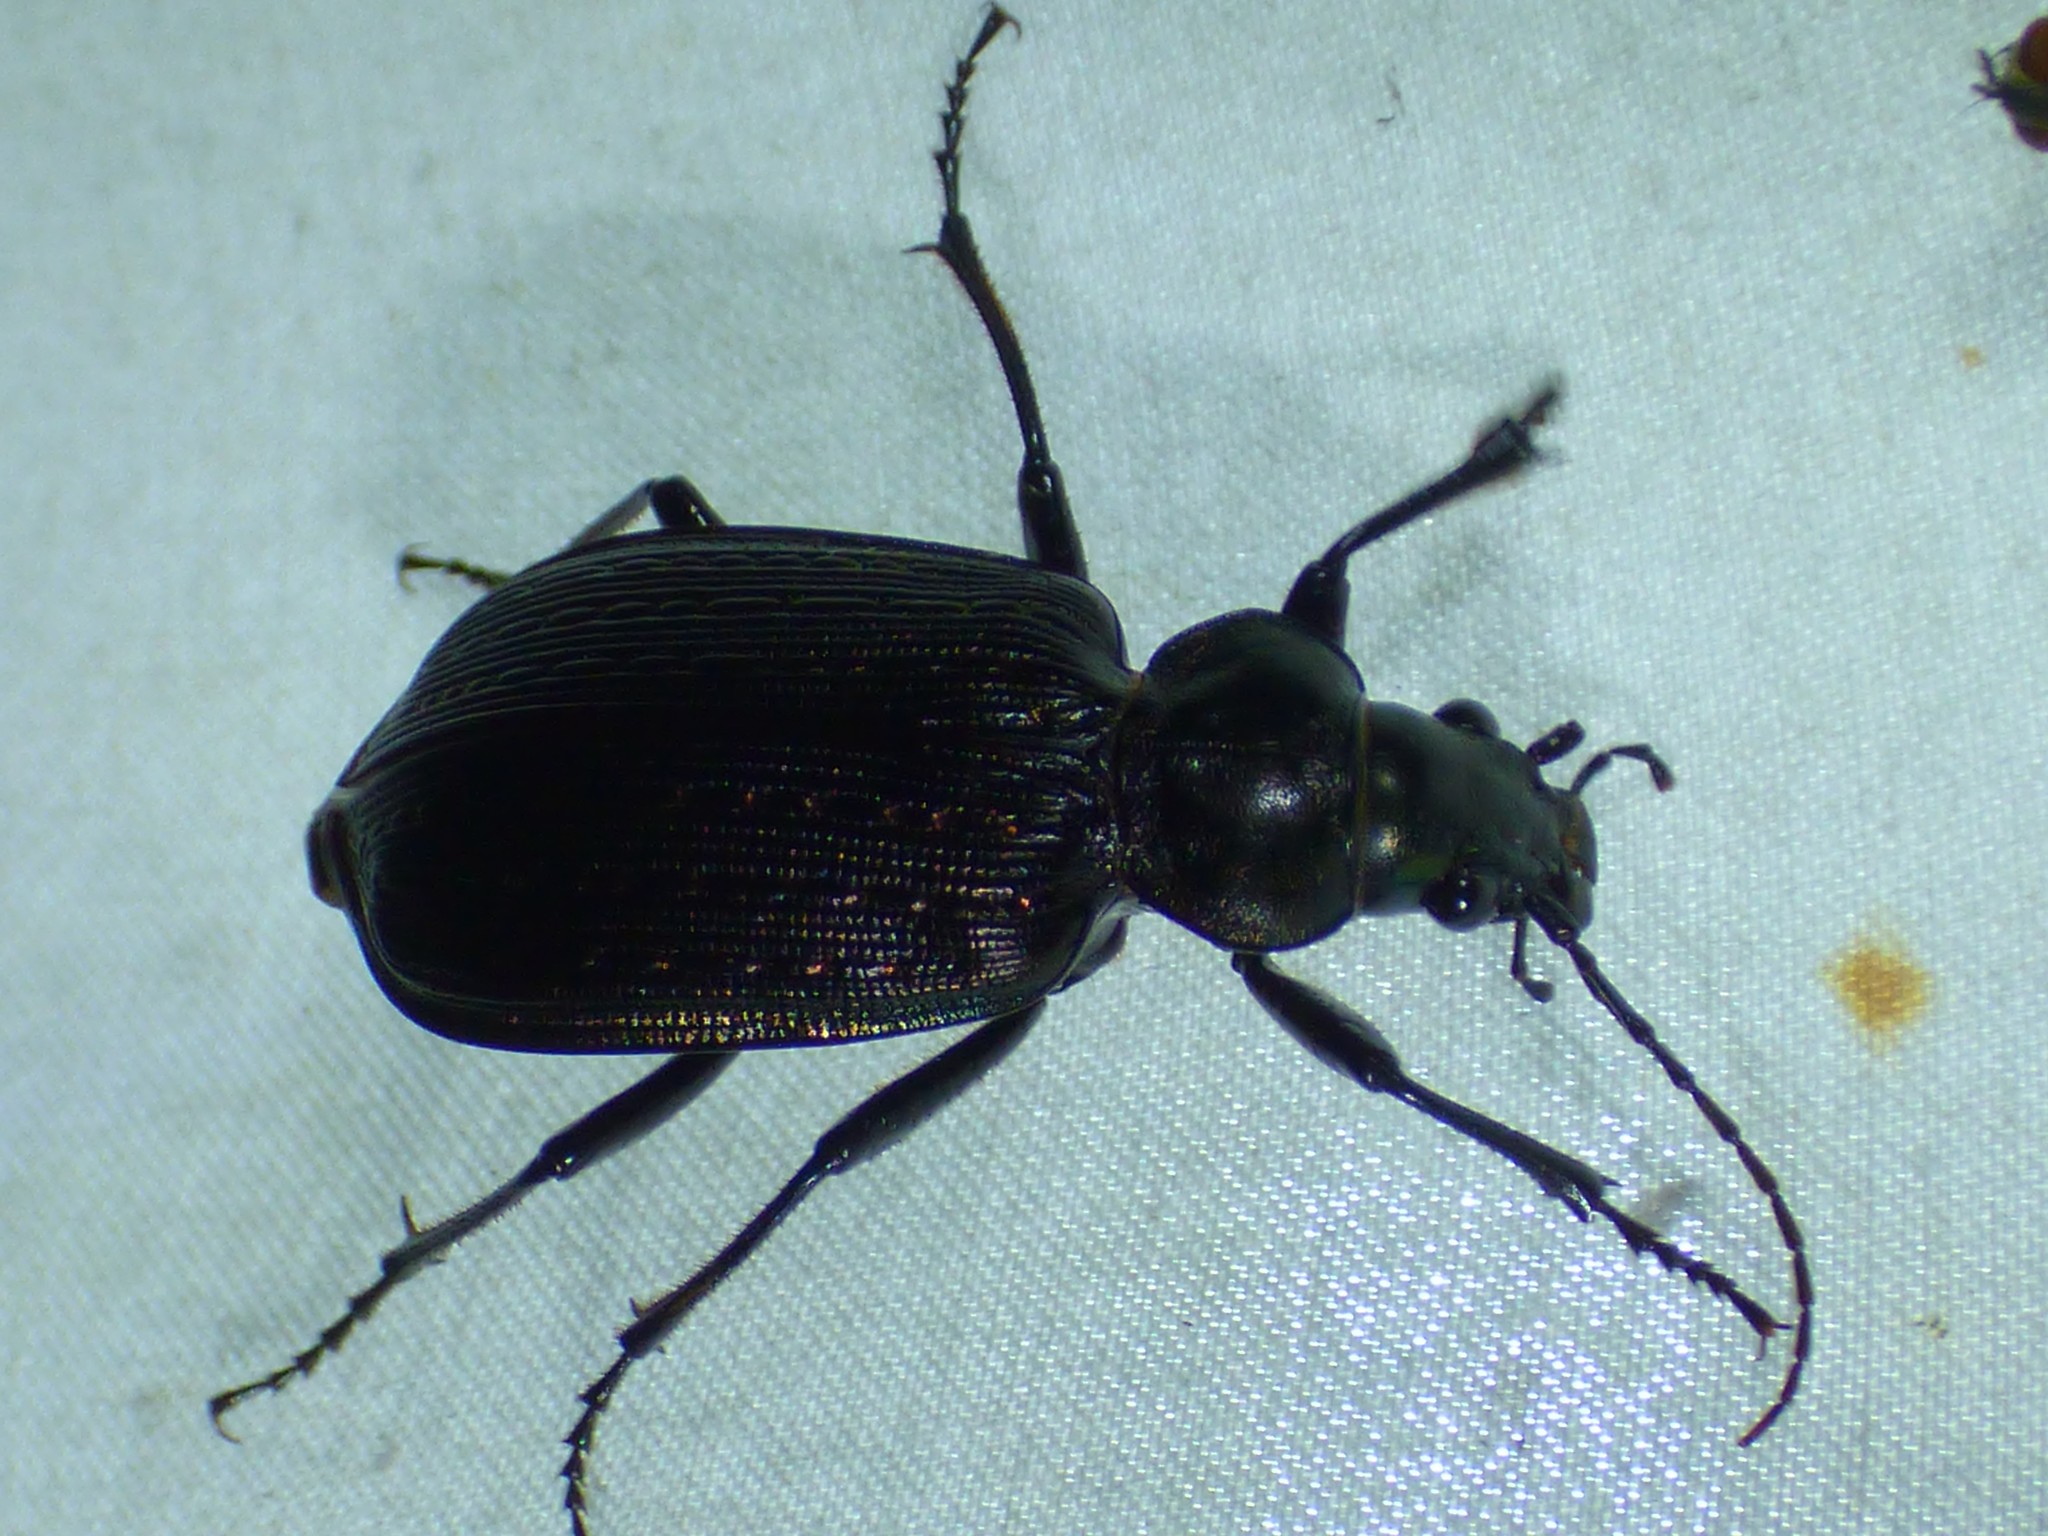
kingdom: Animalia
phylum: Arthropoda
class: Insecta
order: Coleoptera
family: Carabidae
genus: Calosoma
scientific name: Calosoma sayi
